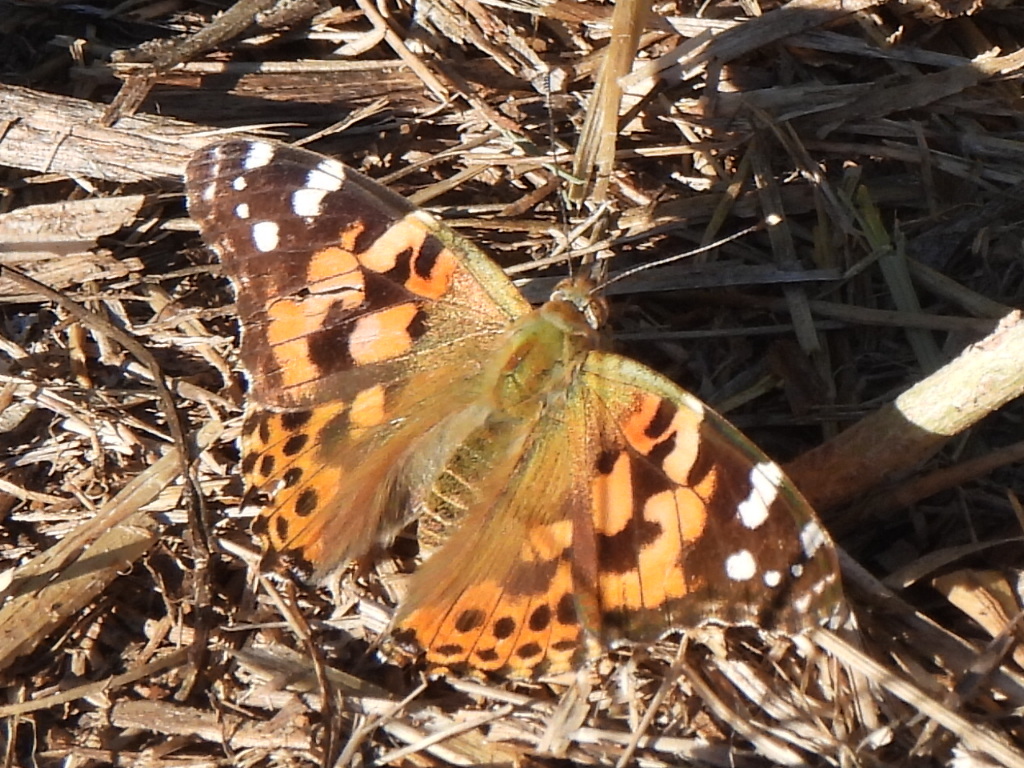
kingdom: Animalia
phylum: Arthropoda
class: Insecta
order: Lepidoptera
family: Nymphalidae
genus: Vanessa
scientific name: Vanessa cardui
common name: Painted lady
